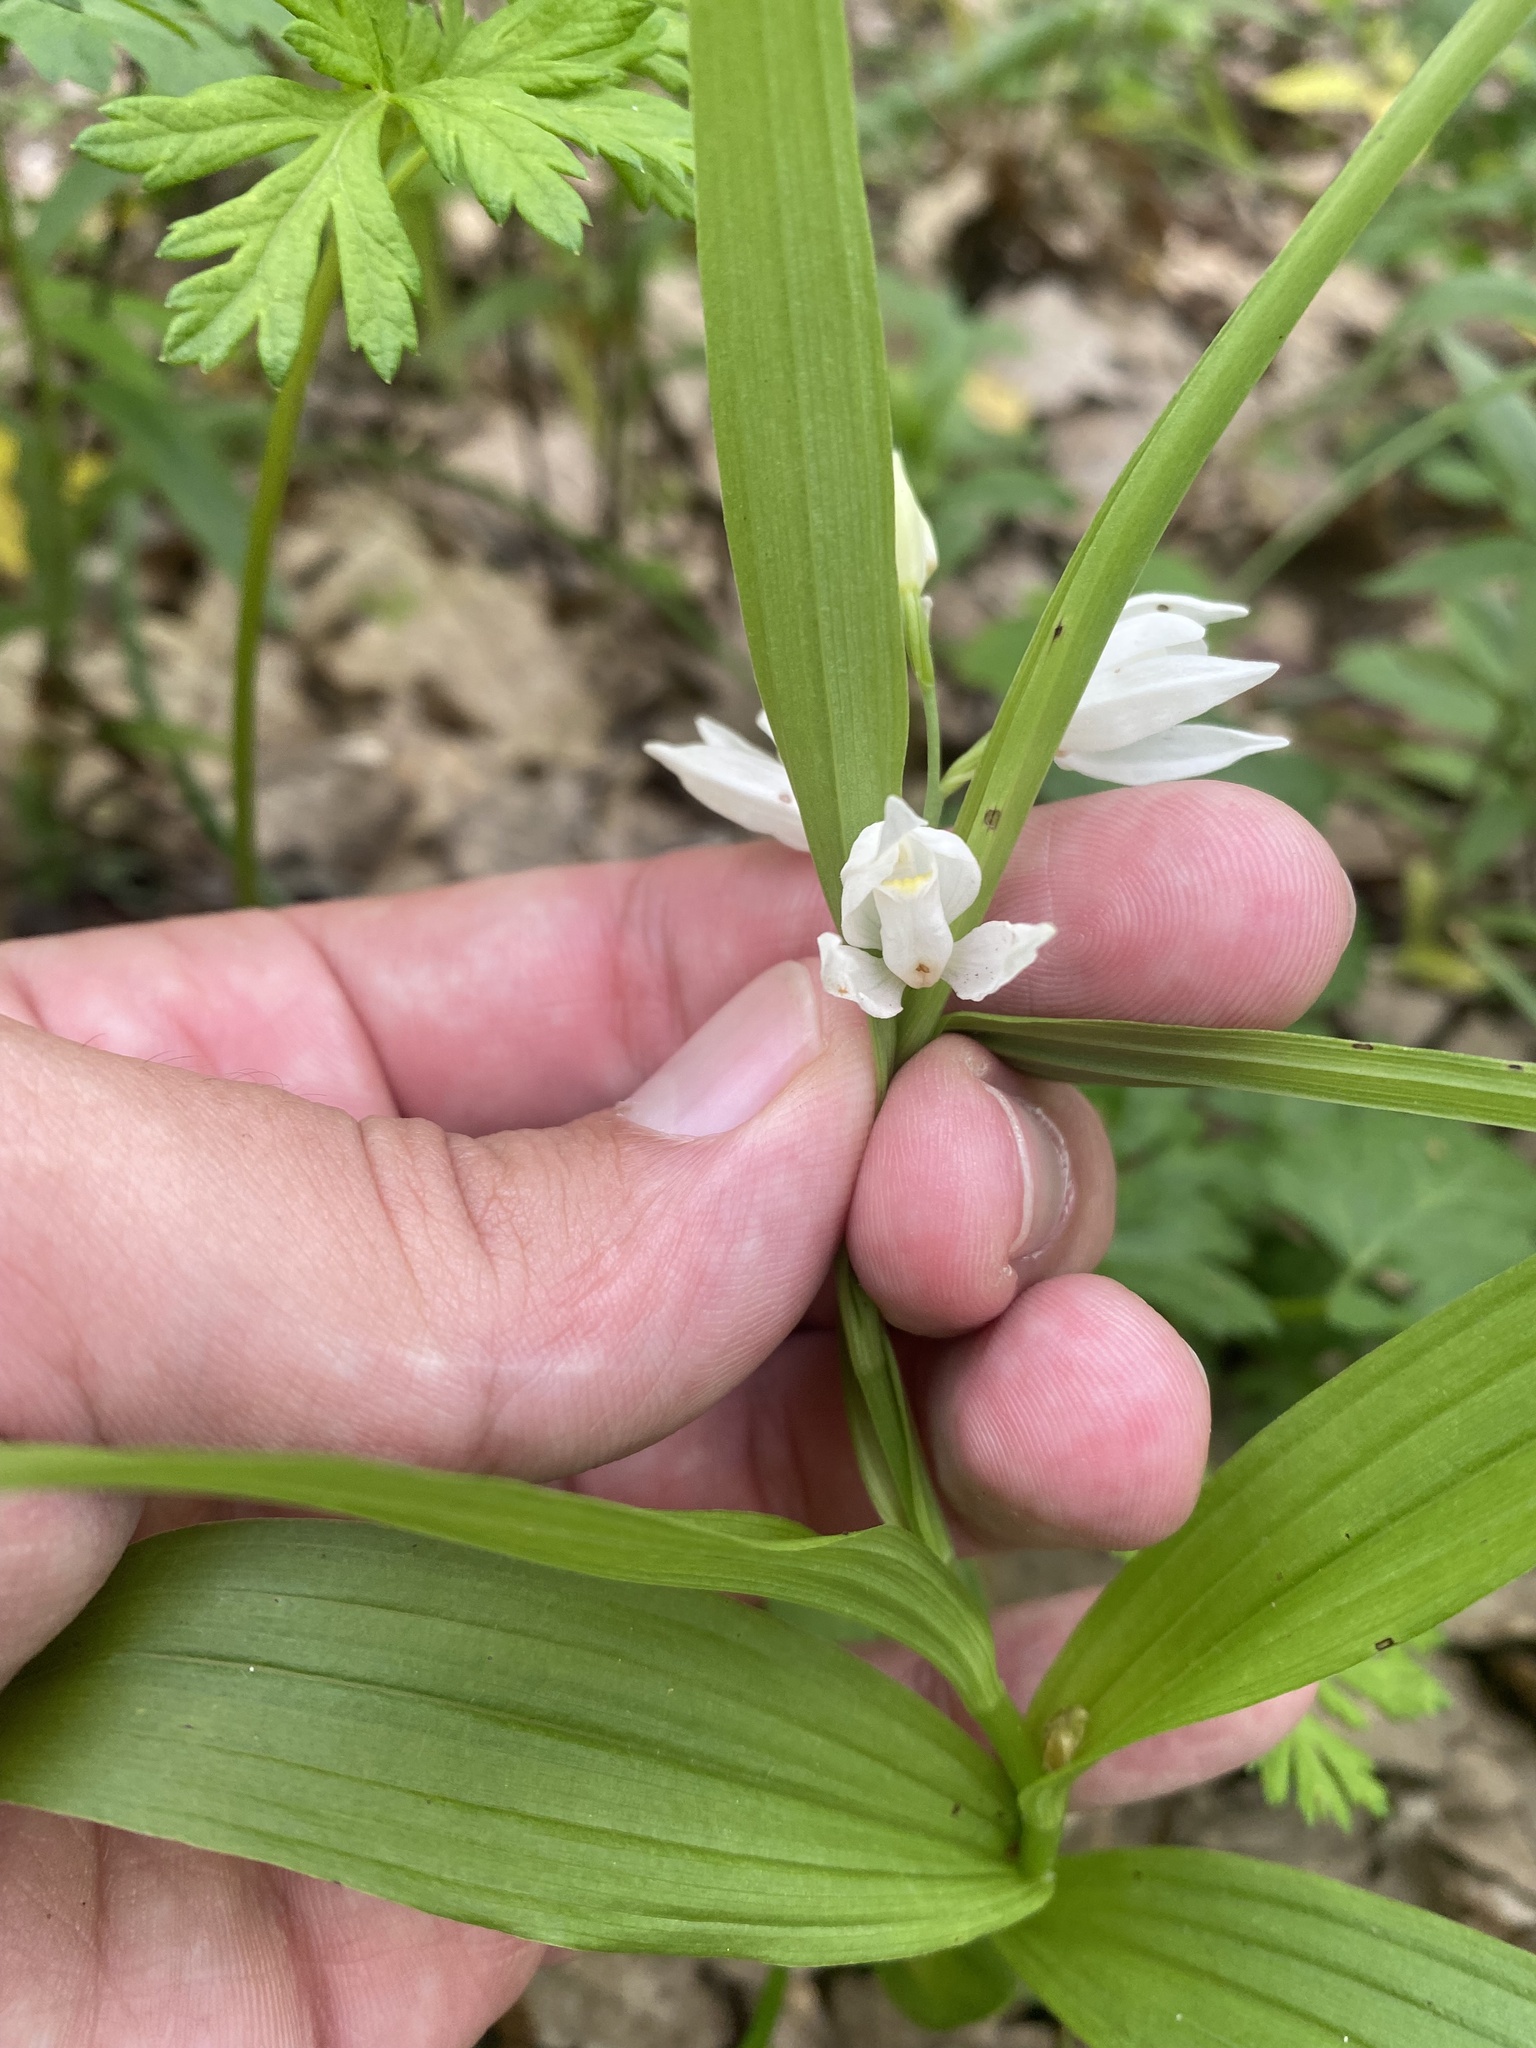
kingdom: Plantae
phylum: Tracheophyta
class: Liliopsida
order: Asparagales
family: Orchidaceae
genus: Cephalanthera
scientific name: Cephalanthera longifolia
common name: Narrow-leaved helleborine
